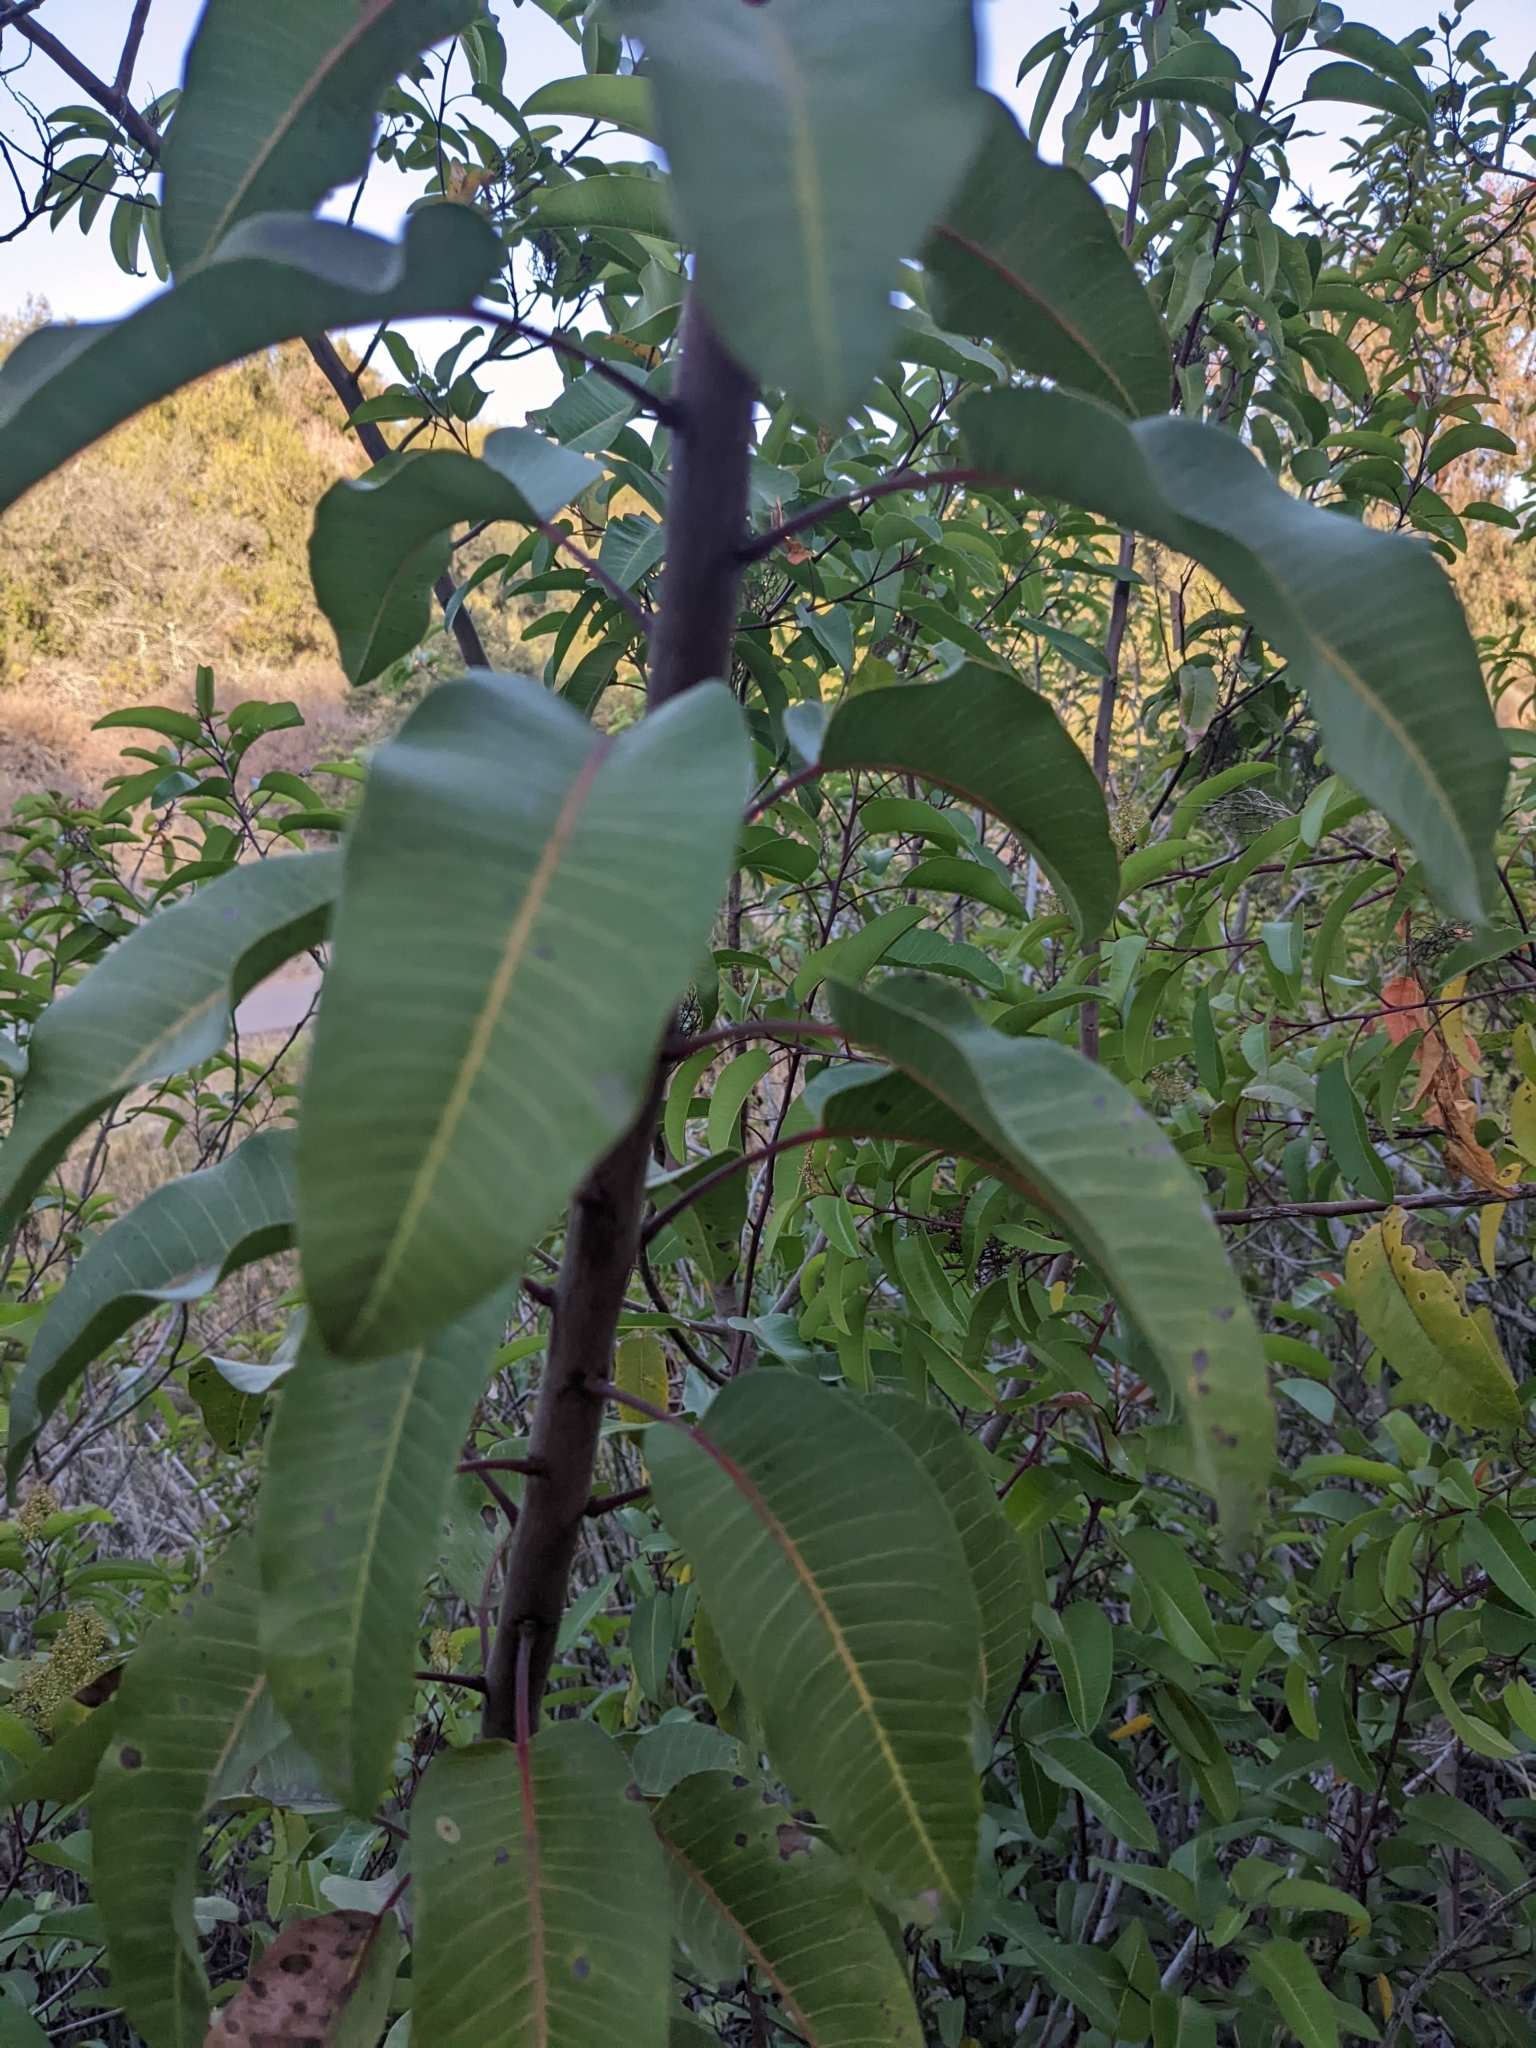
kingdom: Plantae
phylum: Tracheophyta
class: Magnoliopsida
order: Sapindales
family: Anacardiaceae
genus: Malosma
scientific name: Malosma laurina
